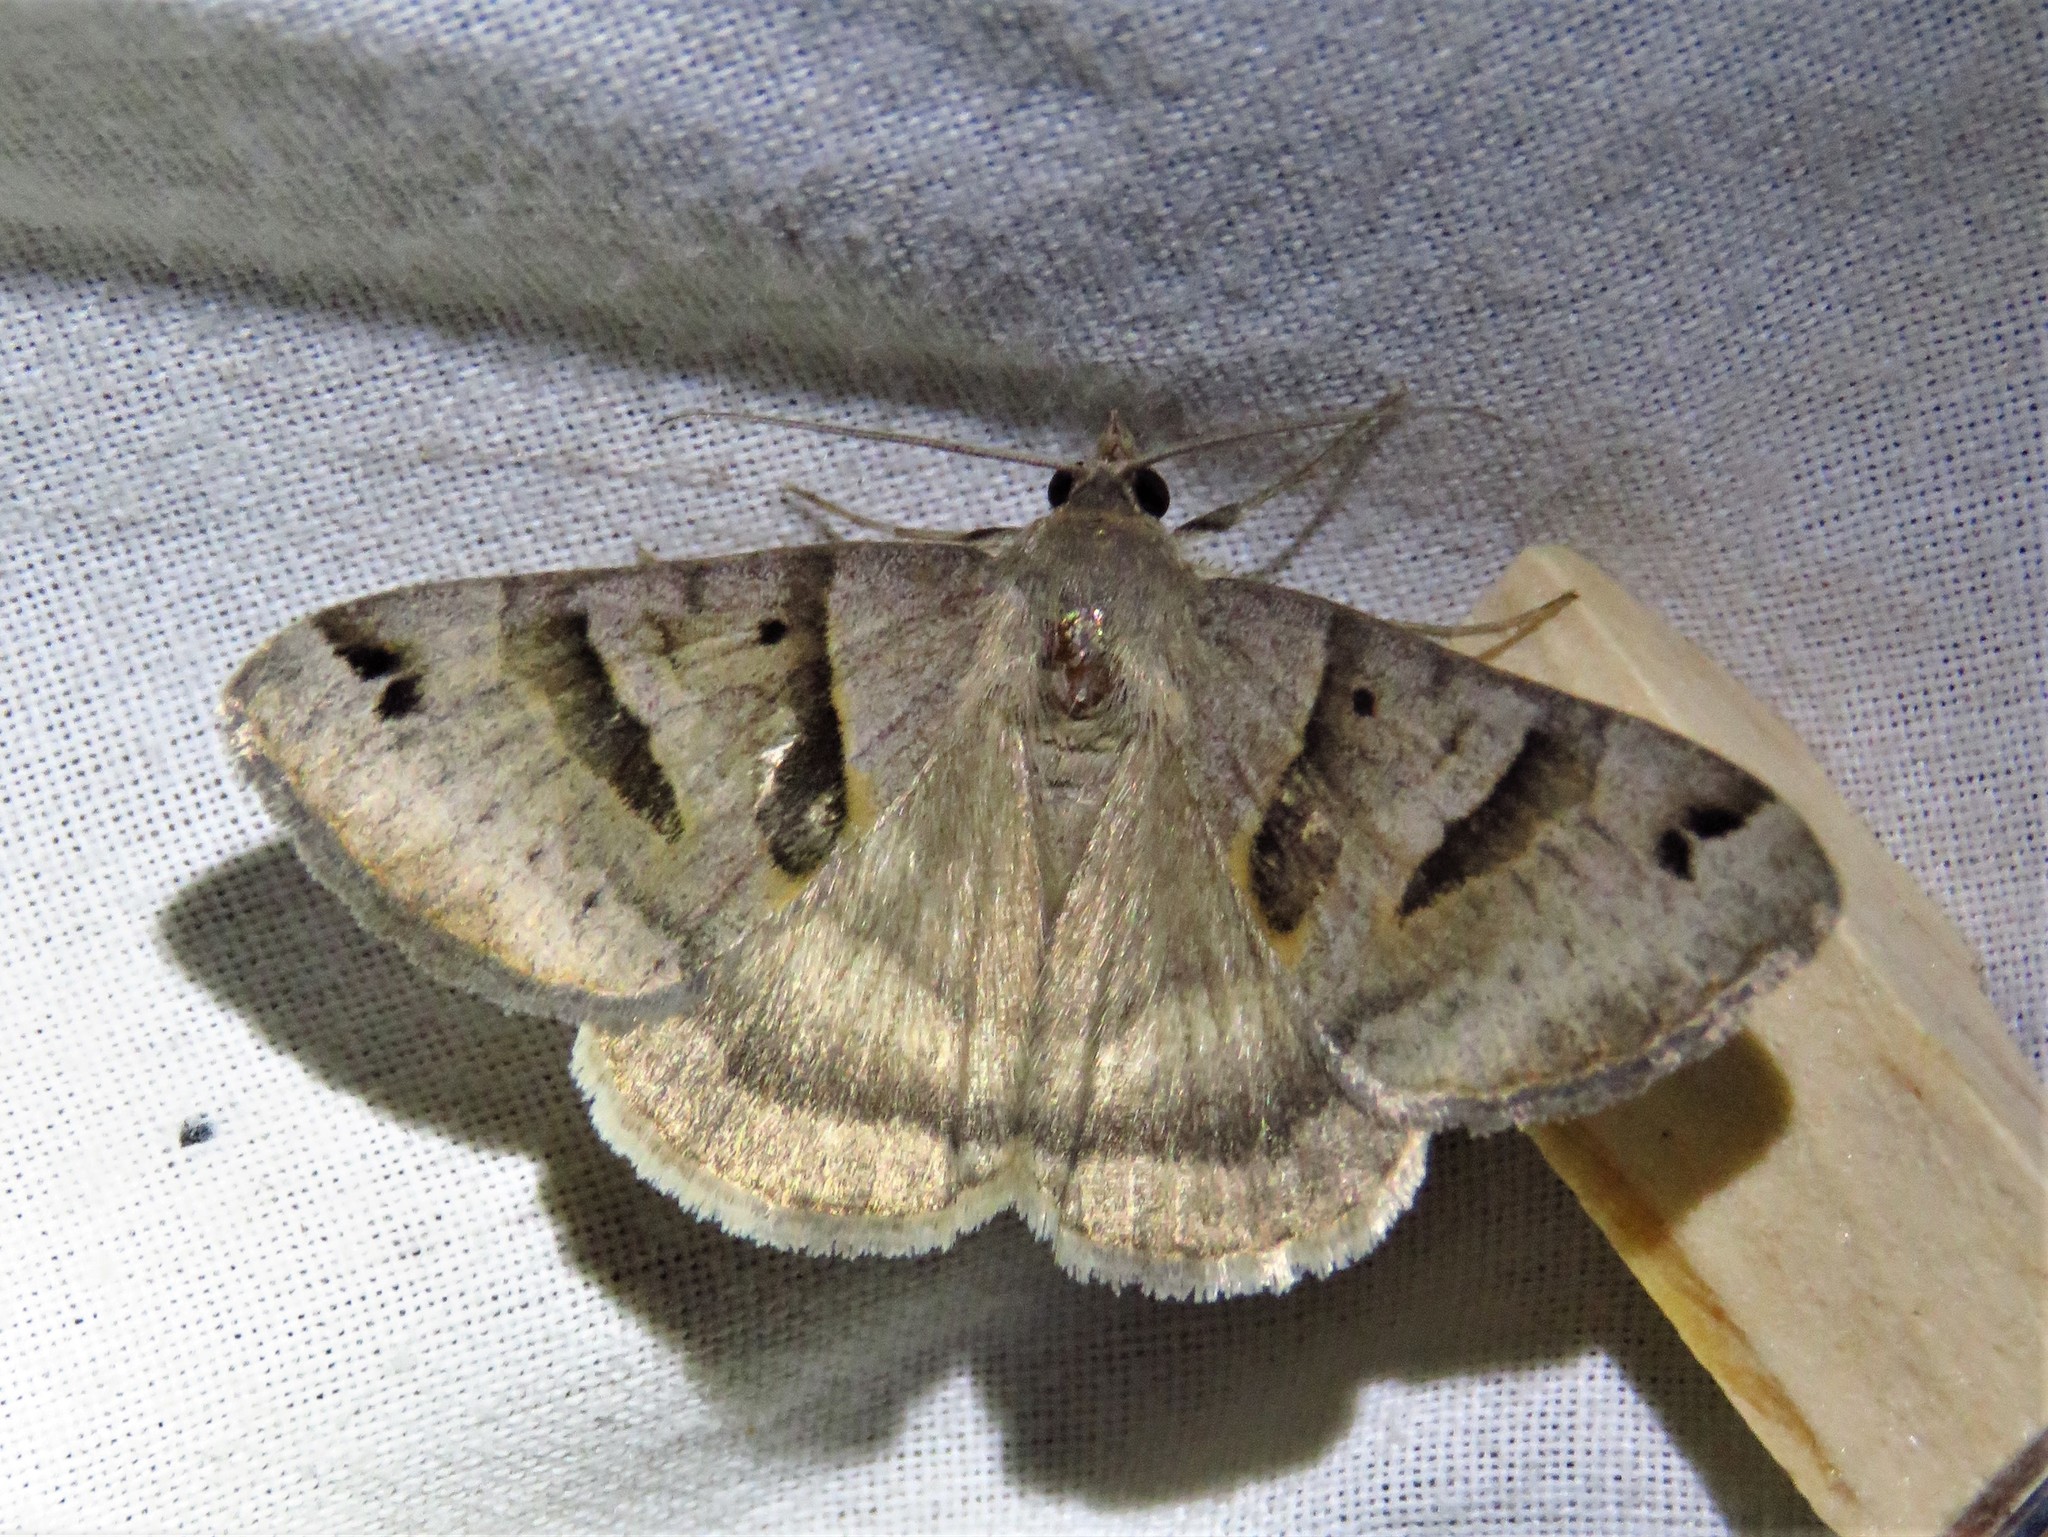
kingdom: Animalia
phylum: Arthropoda
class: Insecta
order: Lepidoptera
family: Erebidae
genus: Caenurgina
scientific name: Caenurgina erechtea
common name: Forage looper moth
